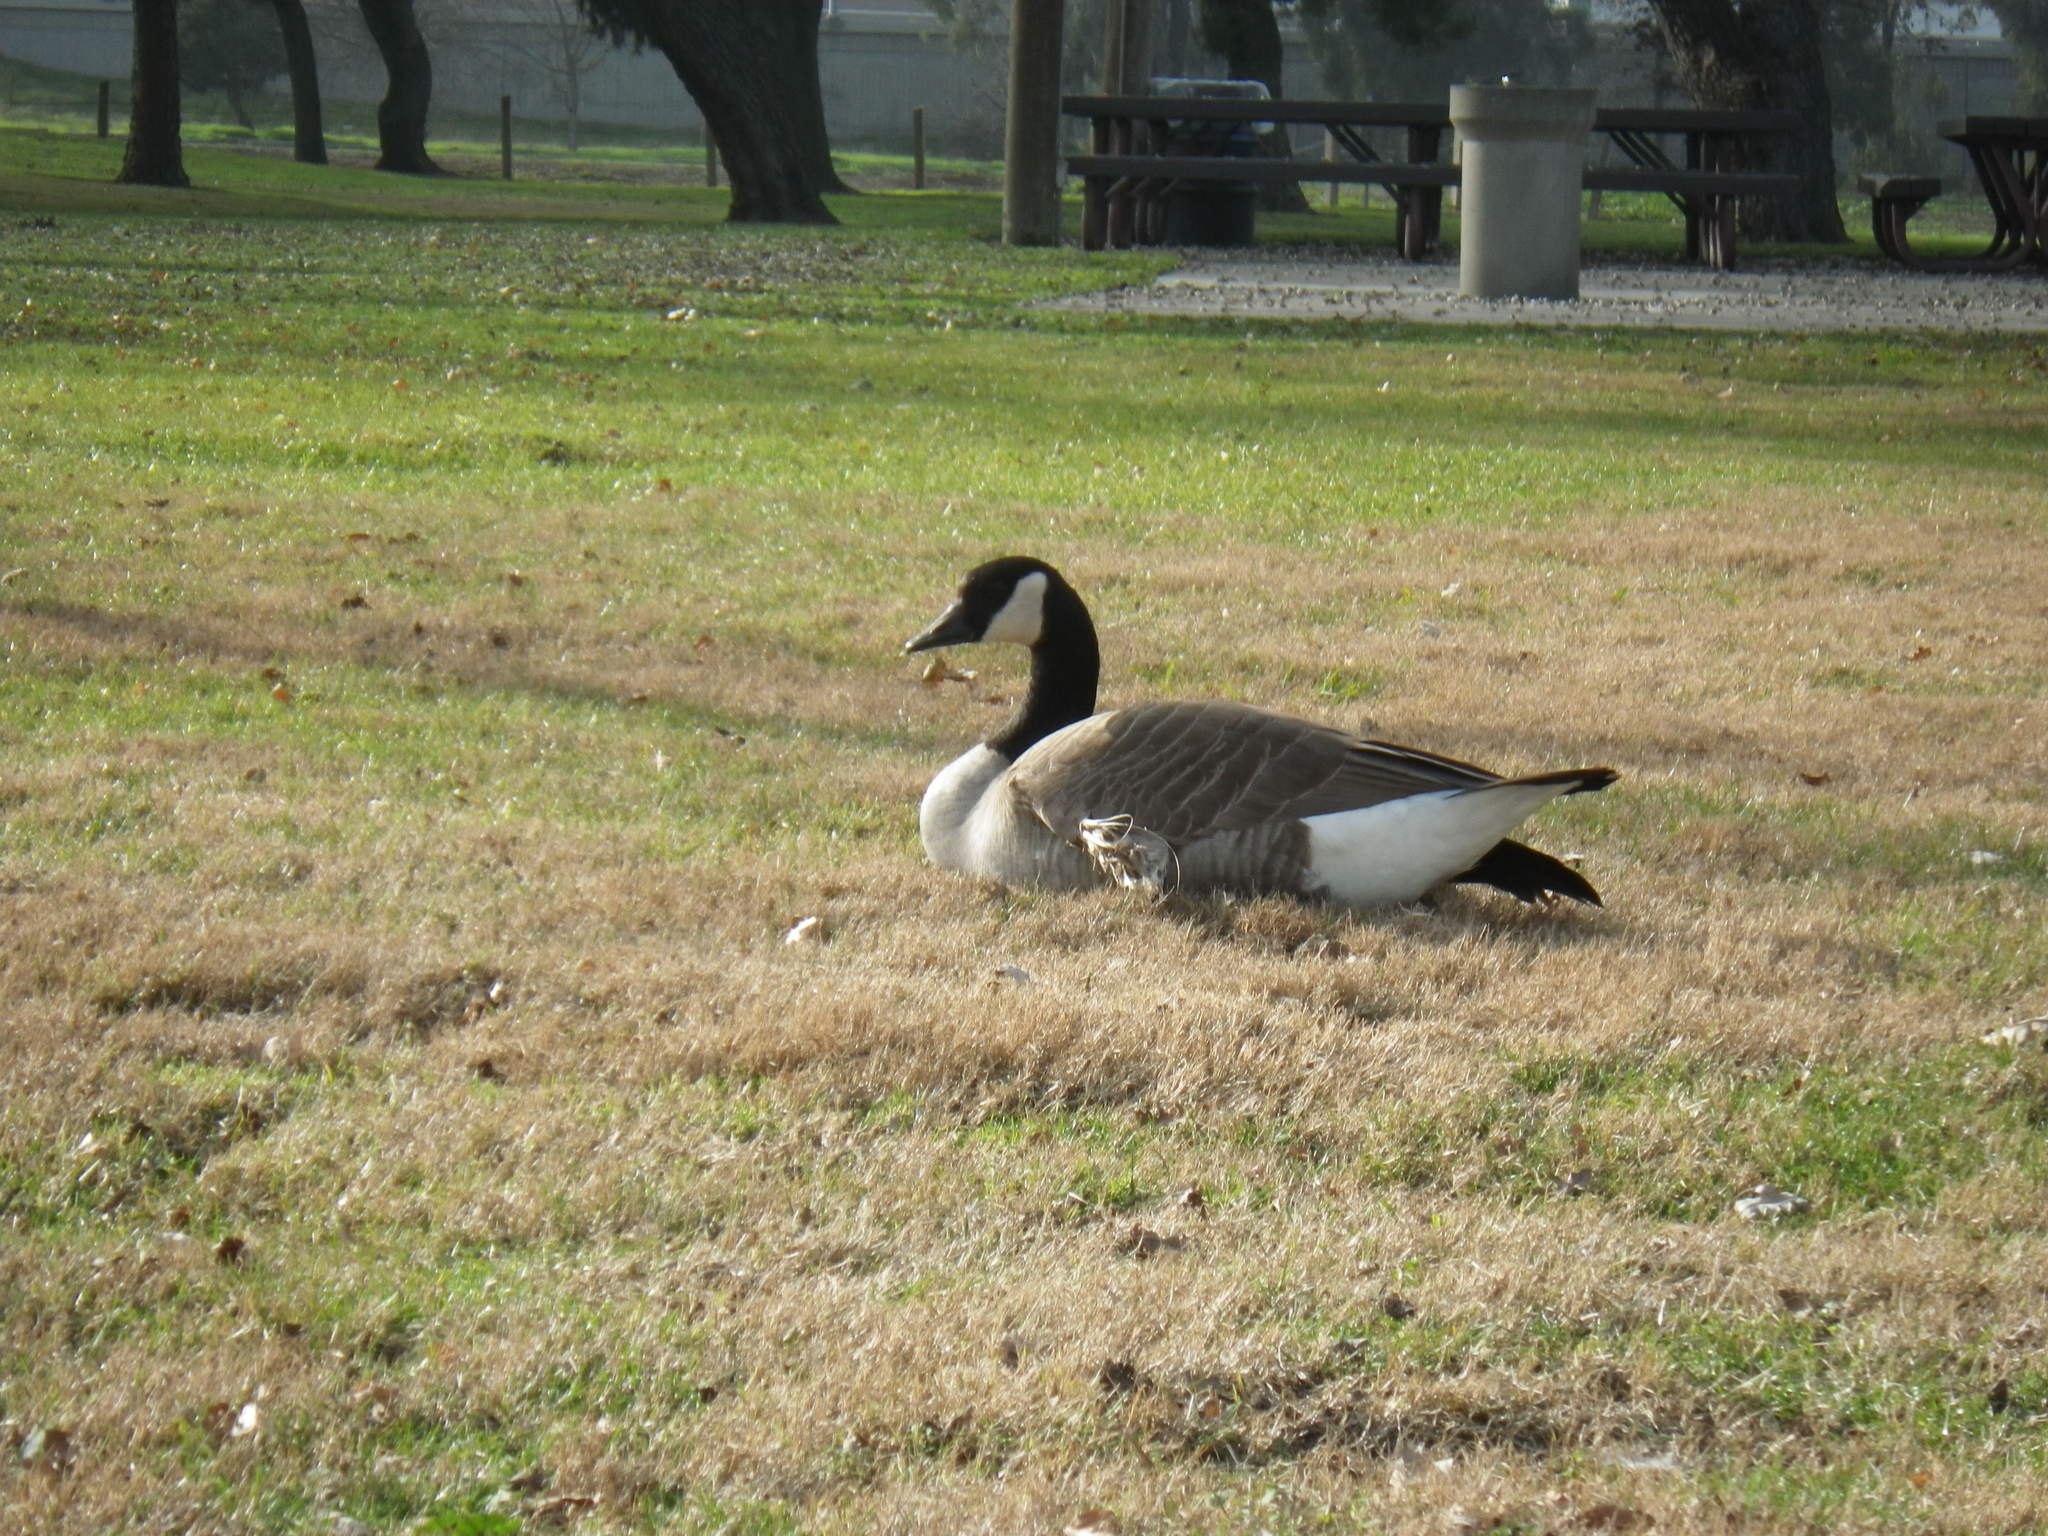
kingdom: Animalia
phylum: Chordata
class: Aves
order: Anseriformes
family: Anatidae
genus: Branta
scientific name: Branta canadensis
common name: Canada goose
